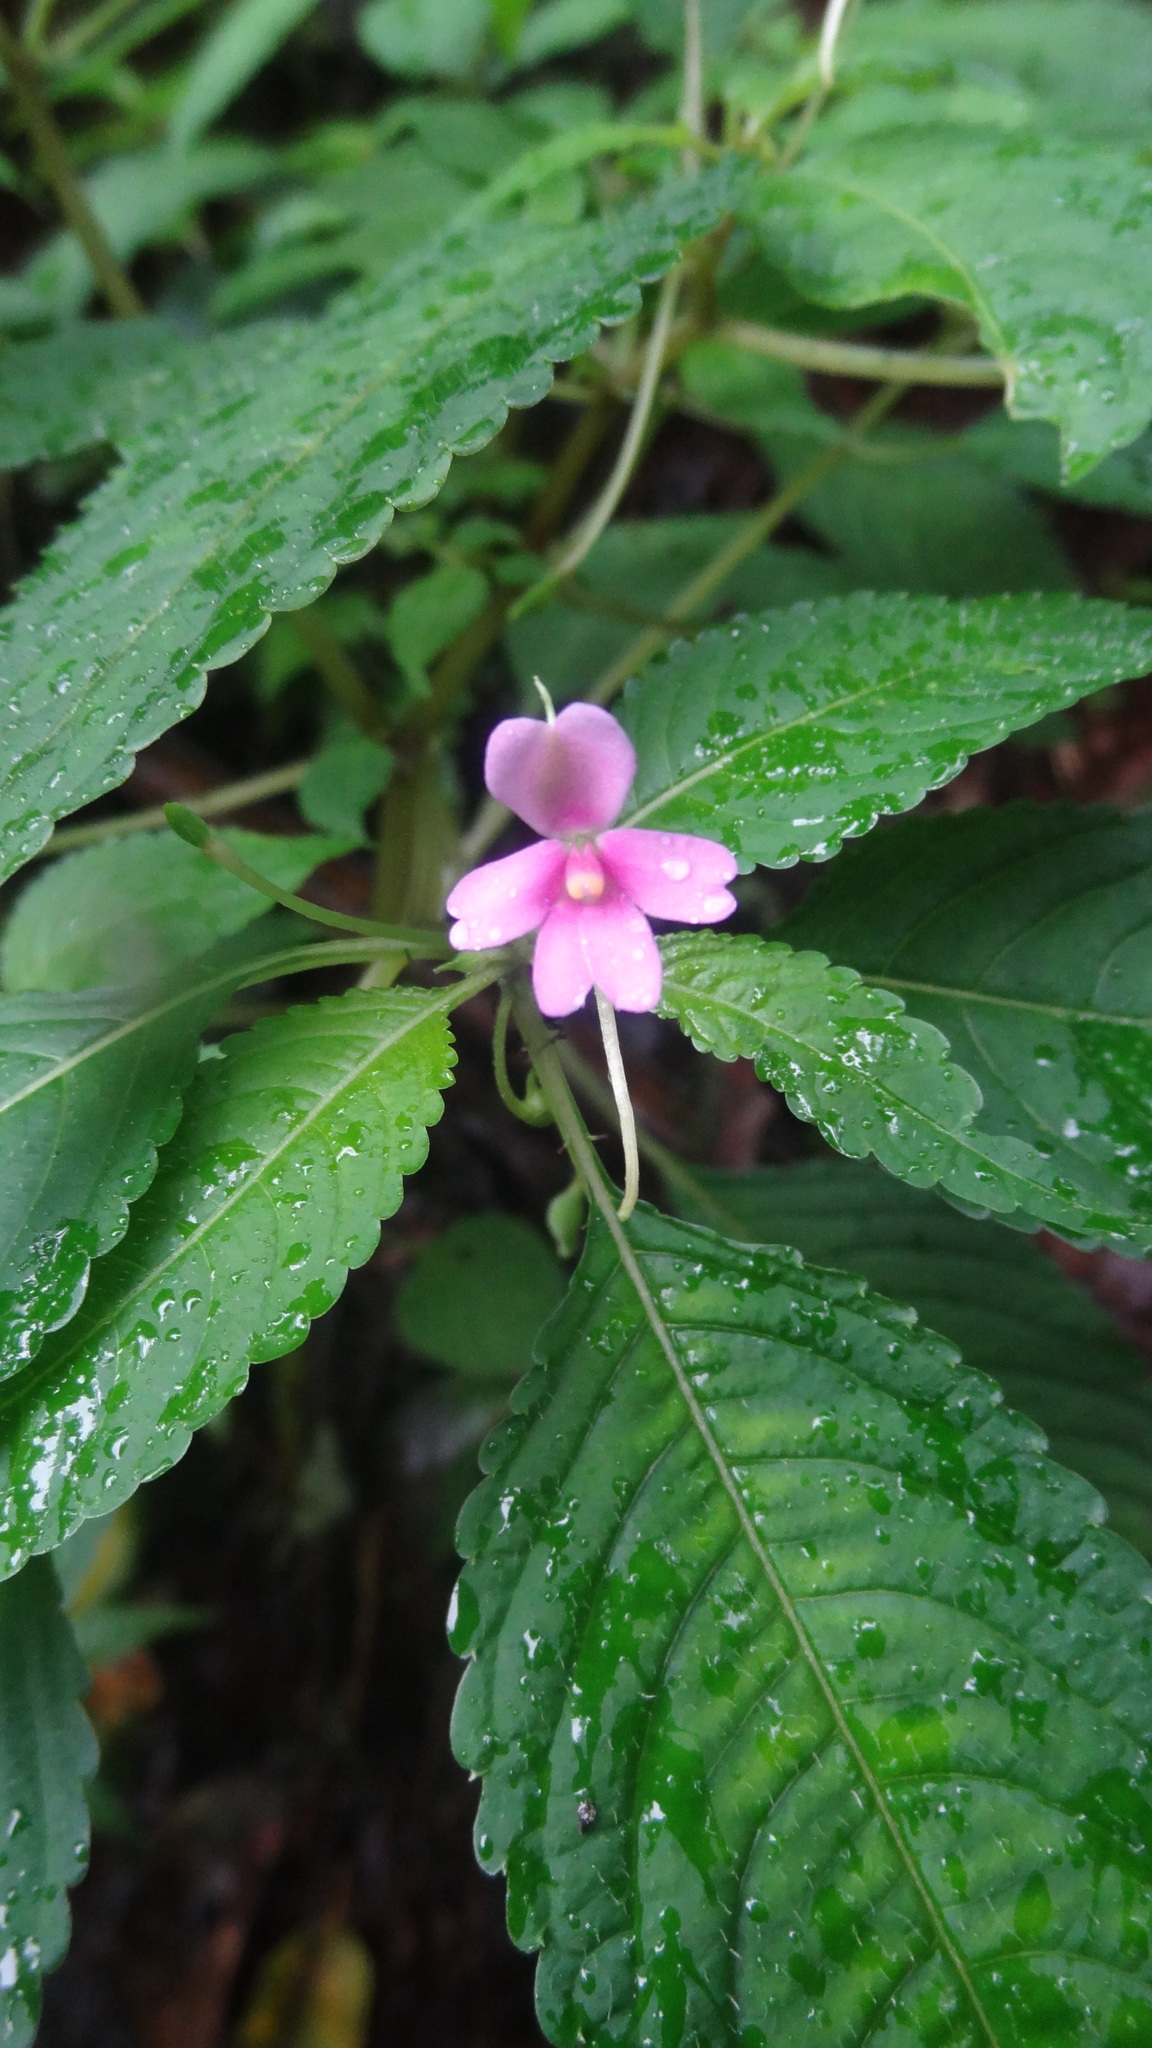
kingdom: Plantae
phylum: Tracheophyta
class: Magnoliopsida
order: Ericales
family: Balsaminaceae
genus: Impatiens
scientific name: Impatiens dasysperma
